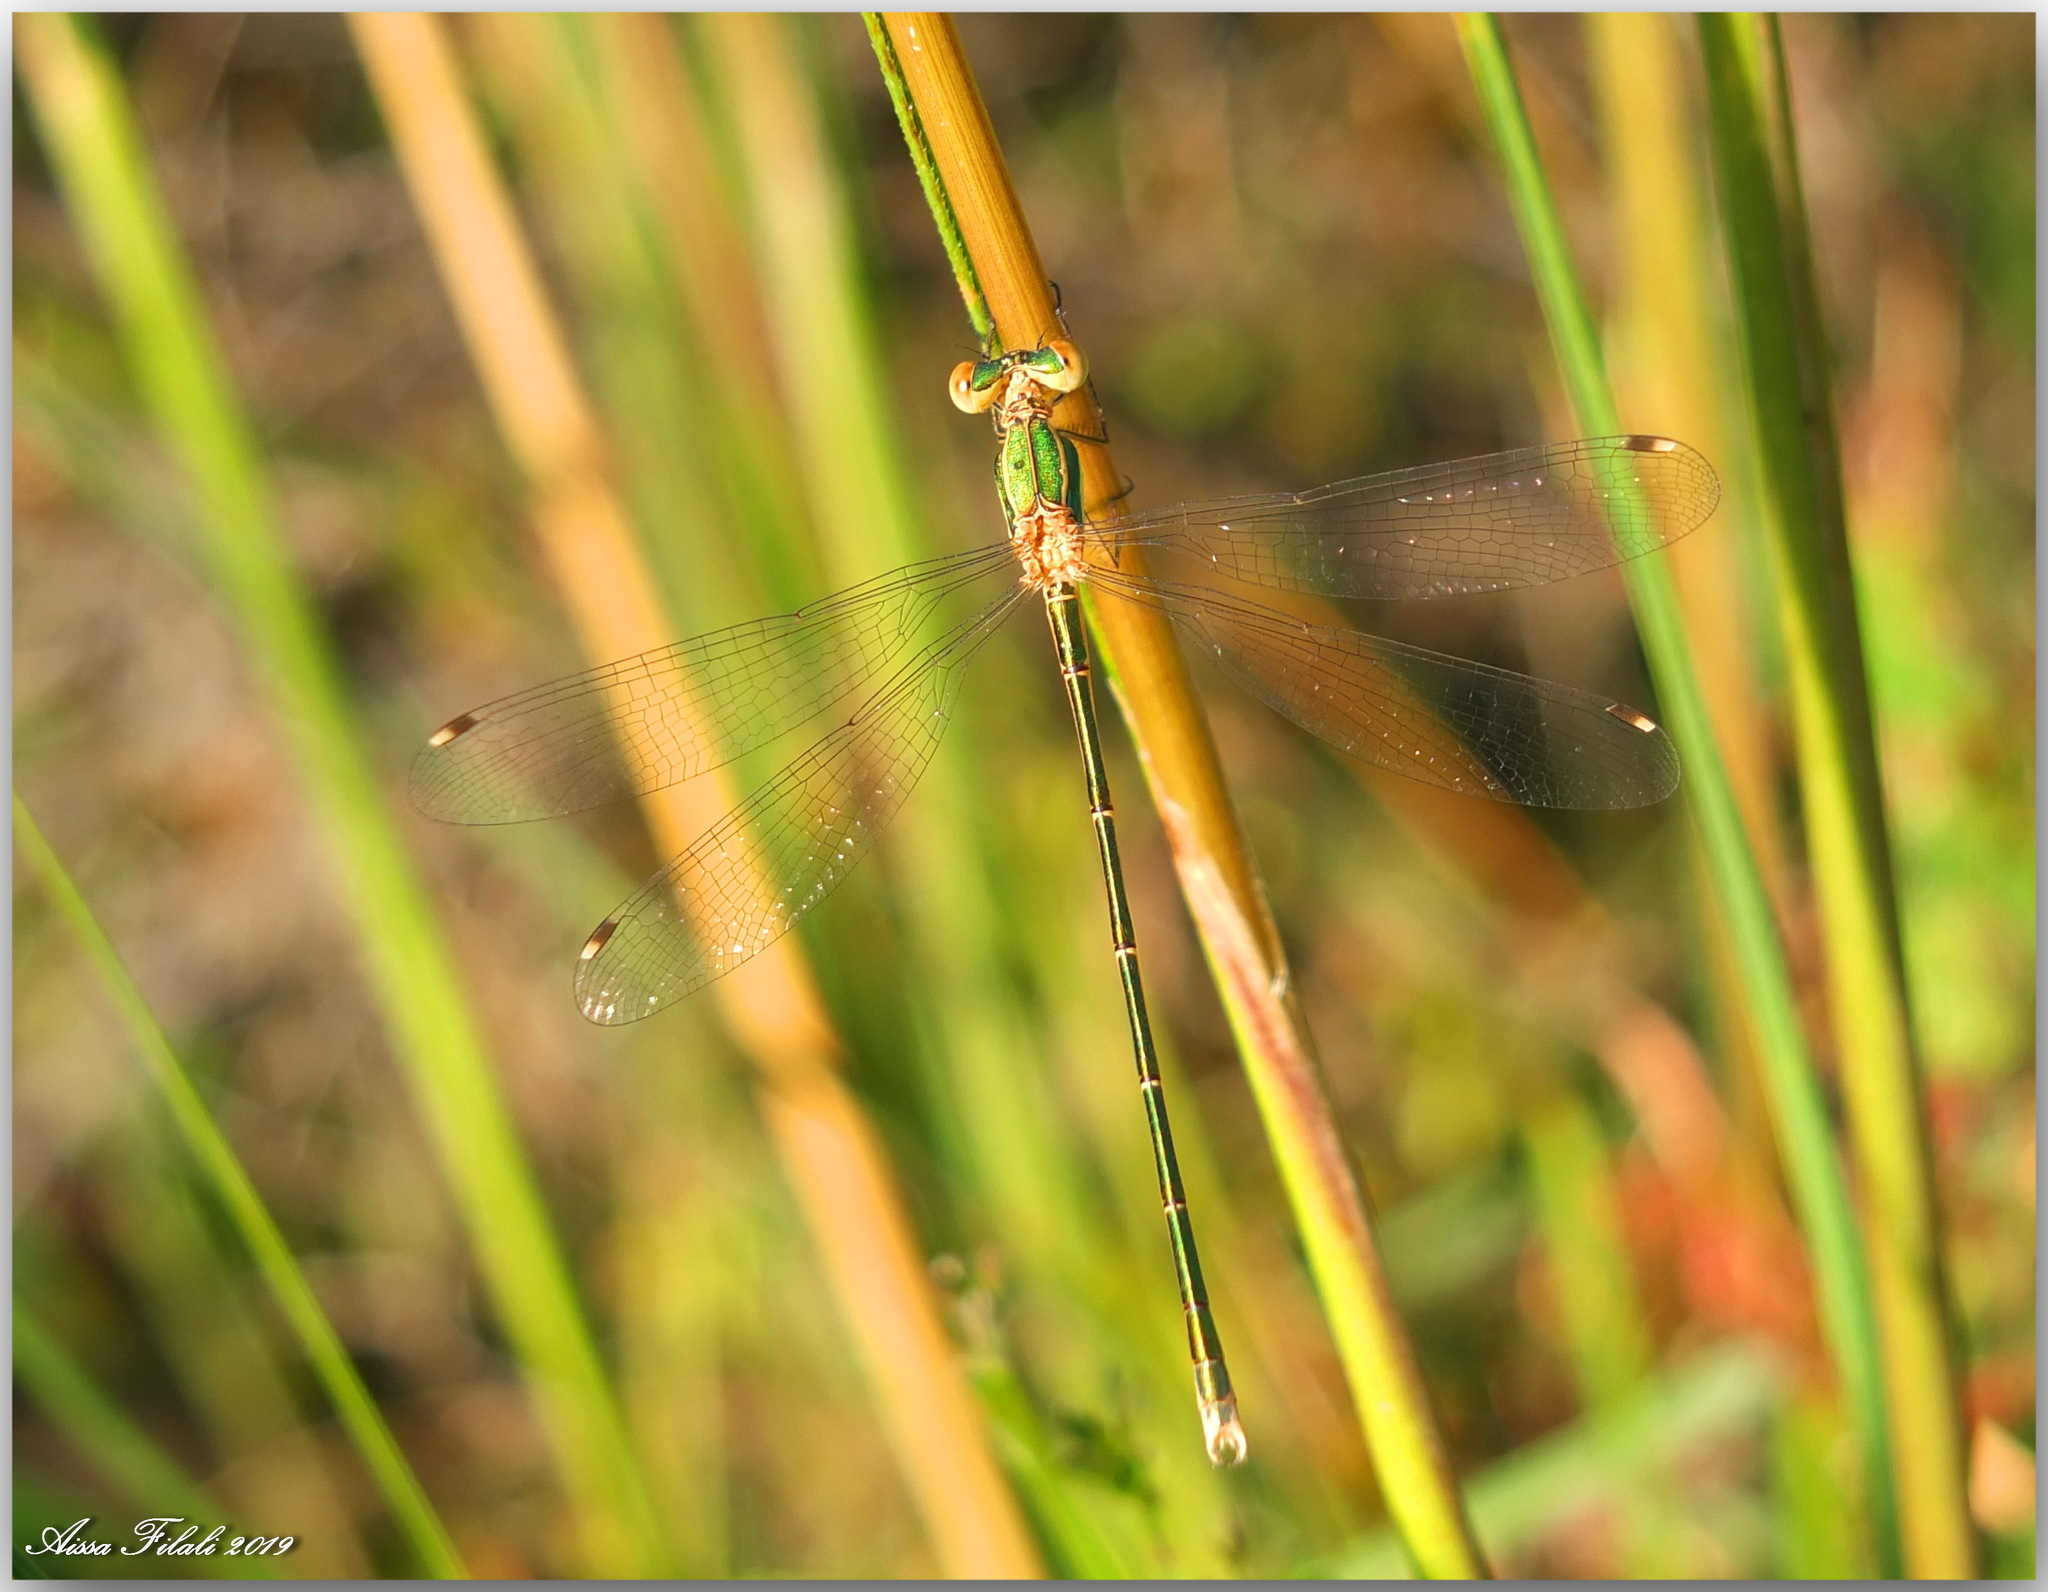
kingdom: Animalia
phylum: Arthropoda
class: Insecta
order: Odonata
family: Lestidae
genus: Lestes
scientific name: Lestes barbarus
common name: Migrant spreadwing
